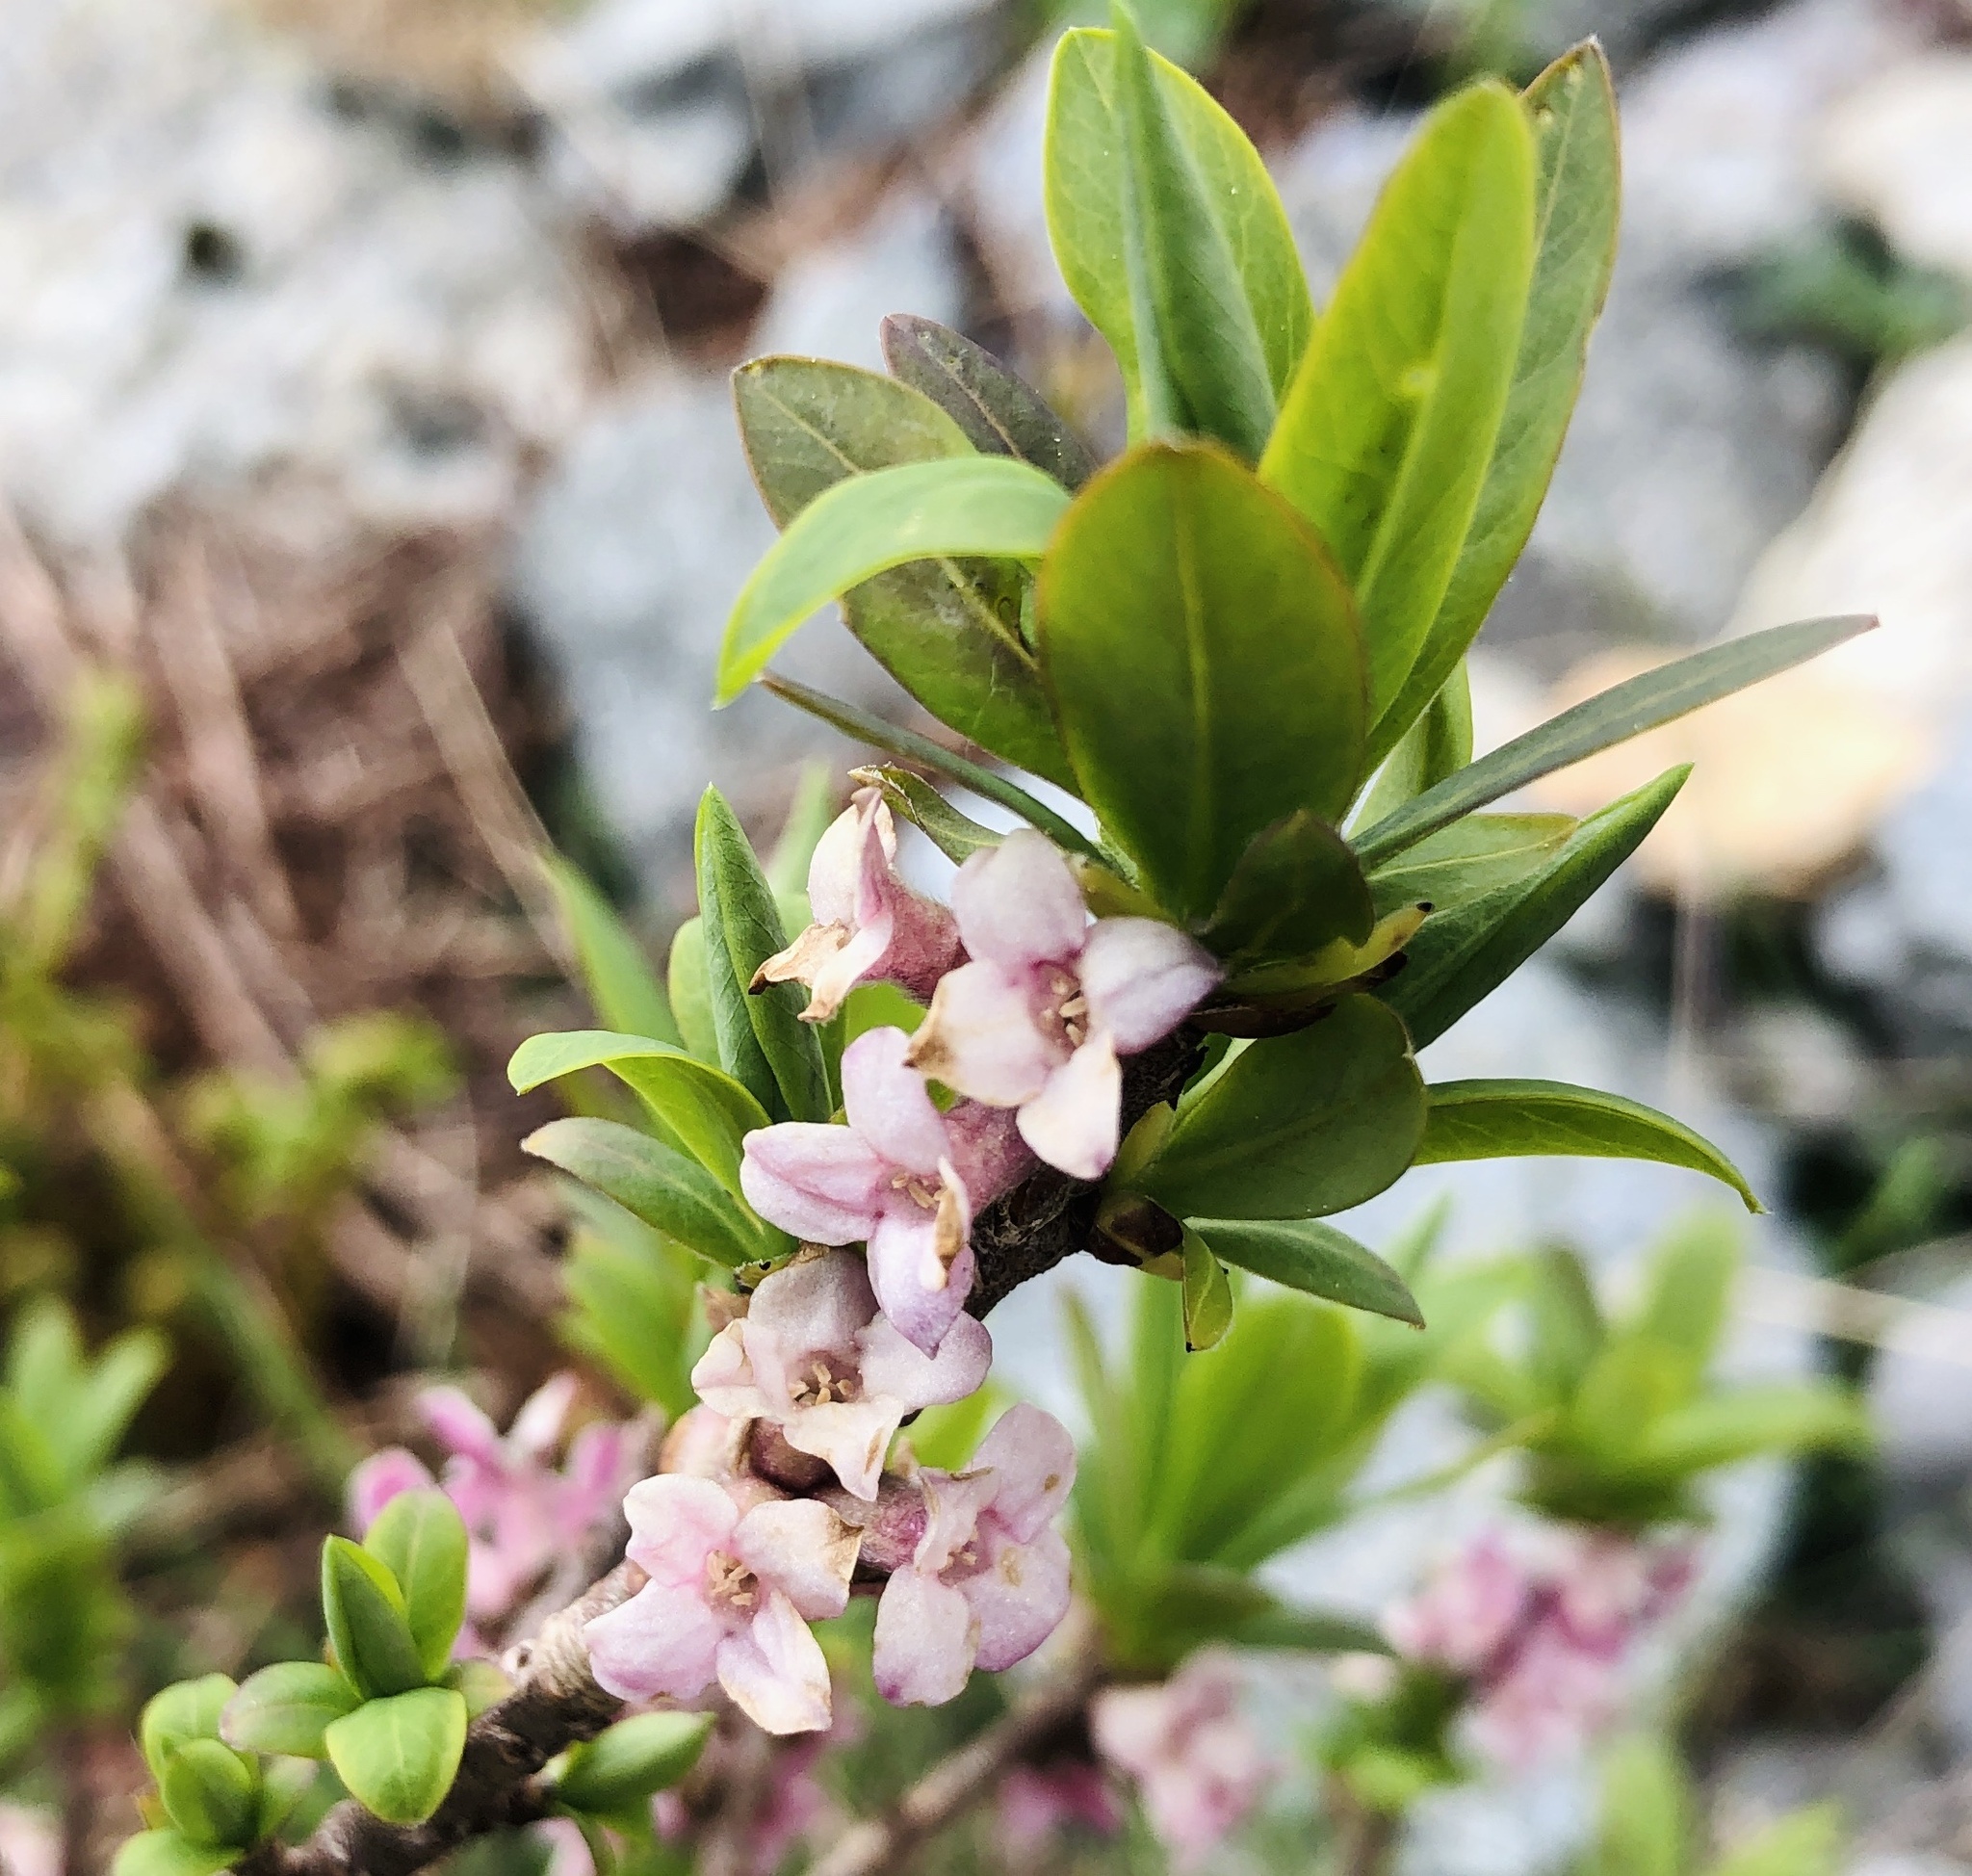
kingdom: Plantae
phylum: Tracheophyta
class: Magnoliopsida
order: Malvales
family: Thymelaeaceae
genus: Daphne
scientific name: Daphne mezereum
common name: Mezereon
